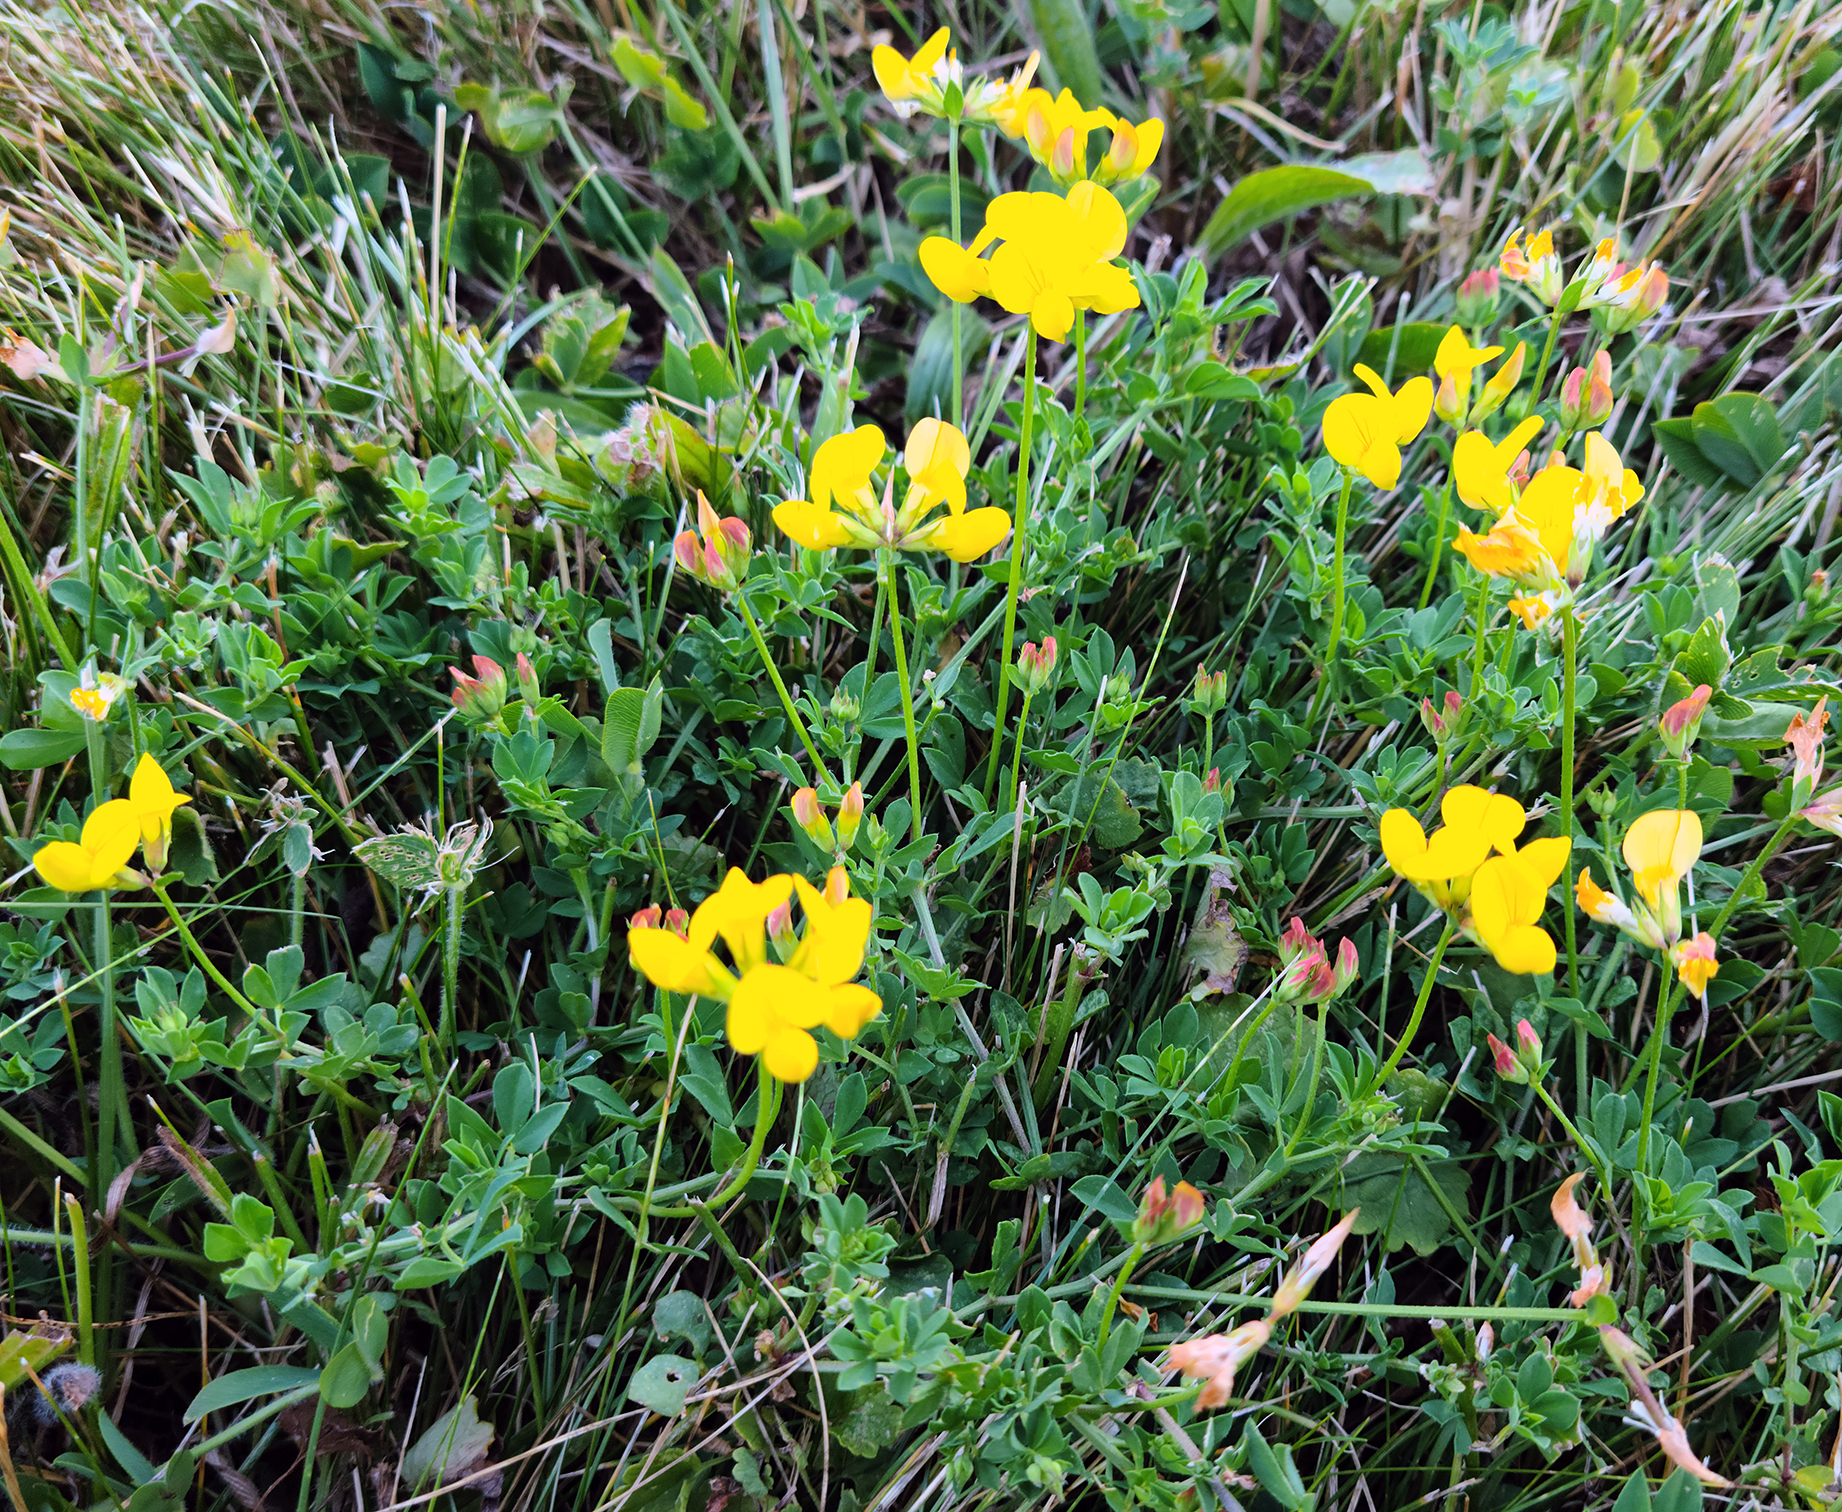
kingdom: Plantae
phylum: Tracheophyta
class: Magnoliopsida
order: Fabales
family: Fabaceae
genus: Lotus
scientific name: Lotus corniculatus
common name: Common bird's-foot-trefoil
